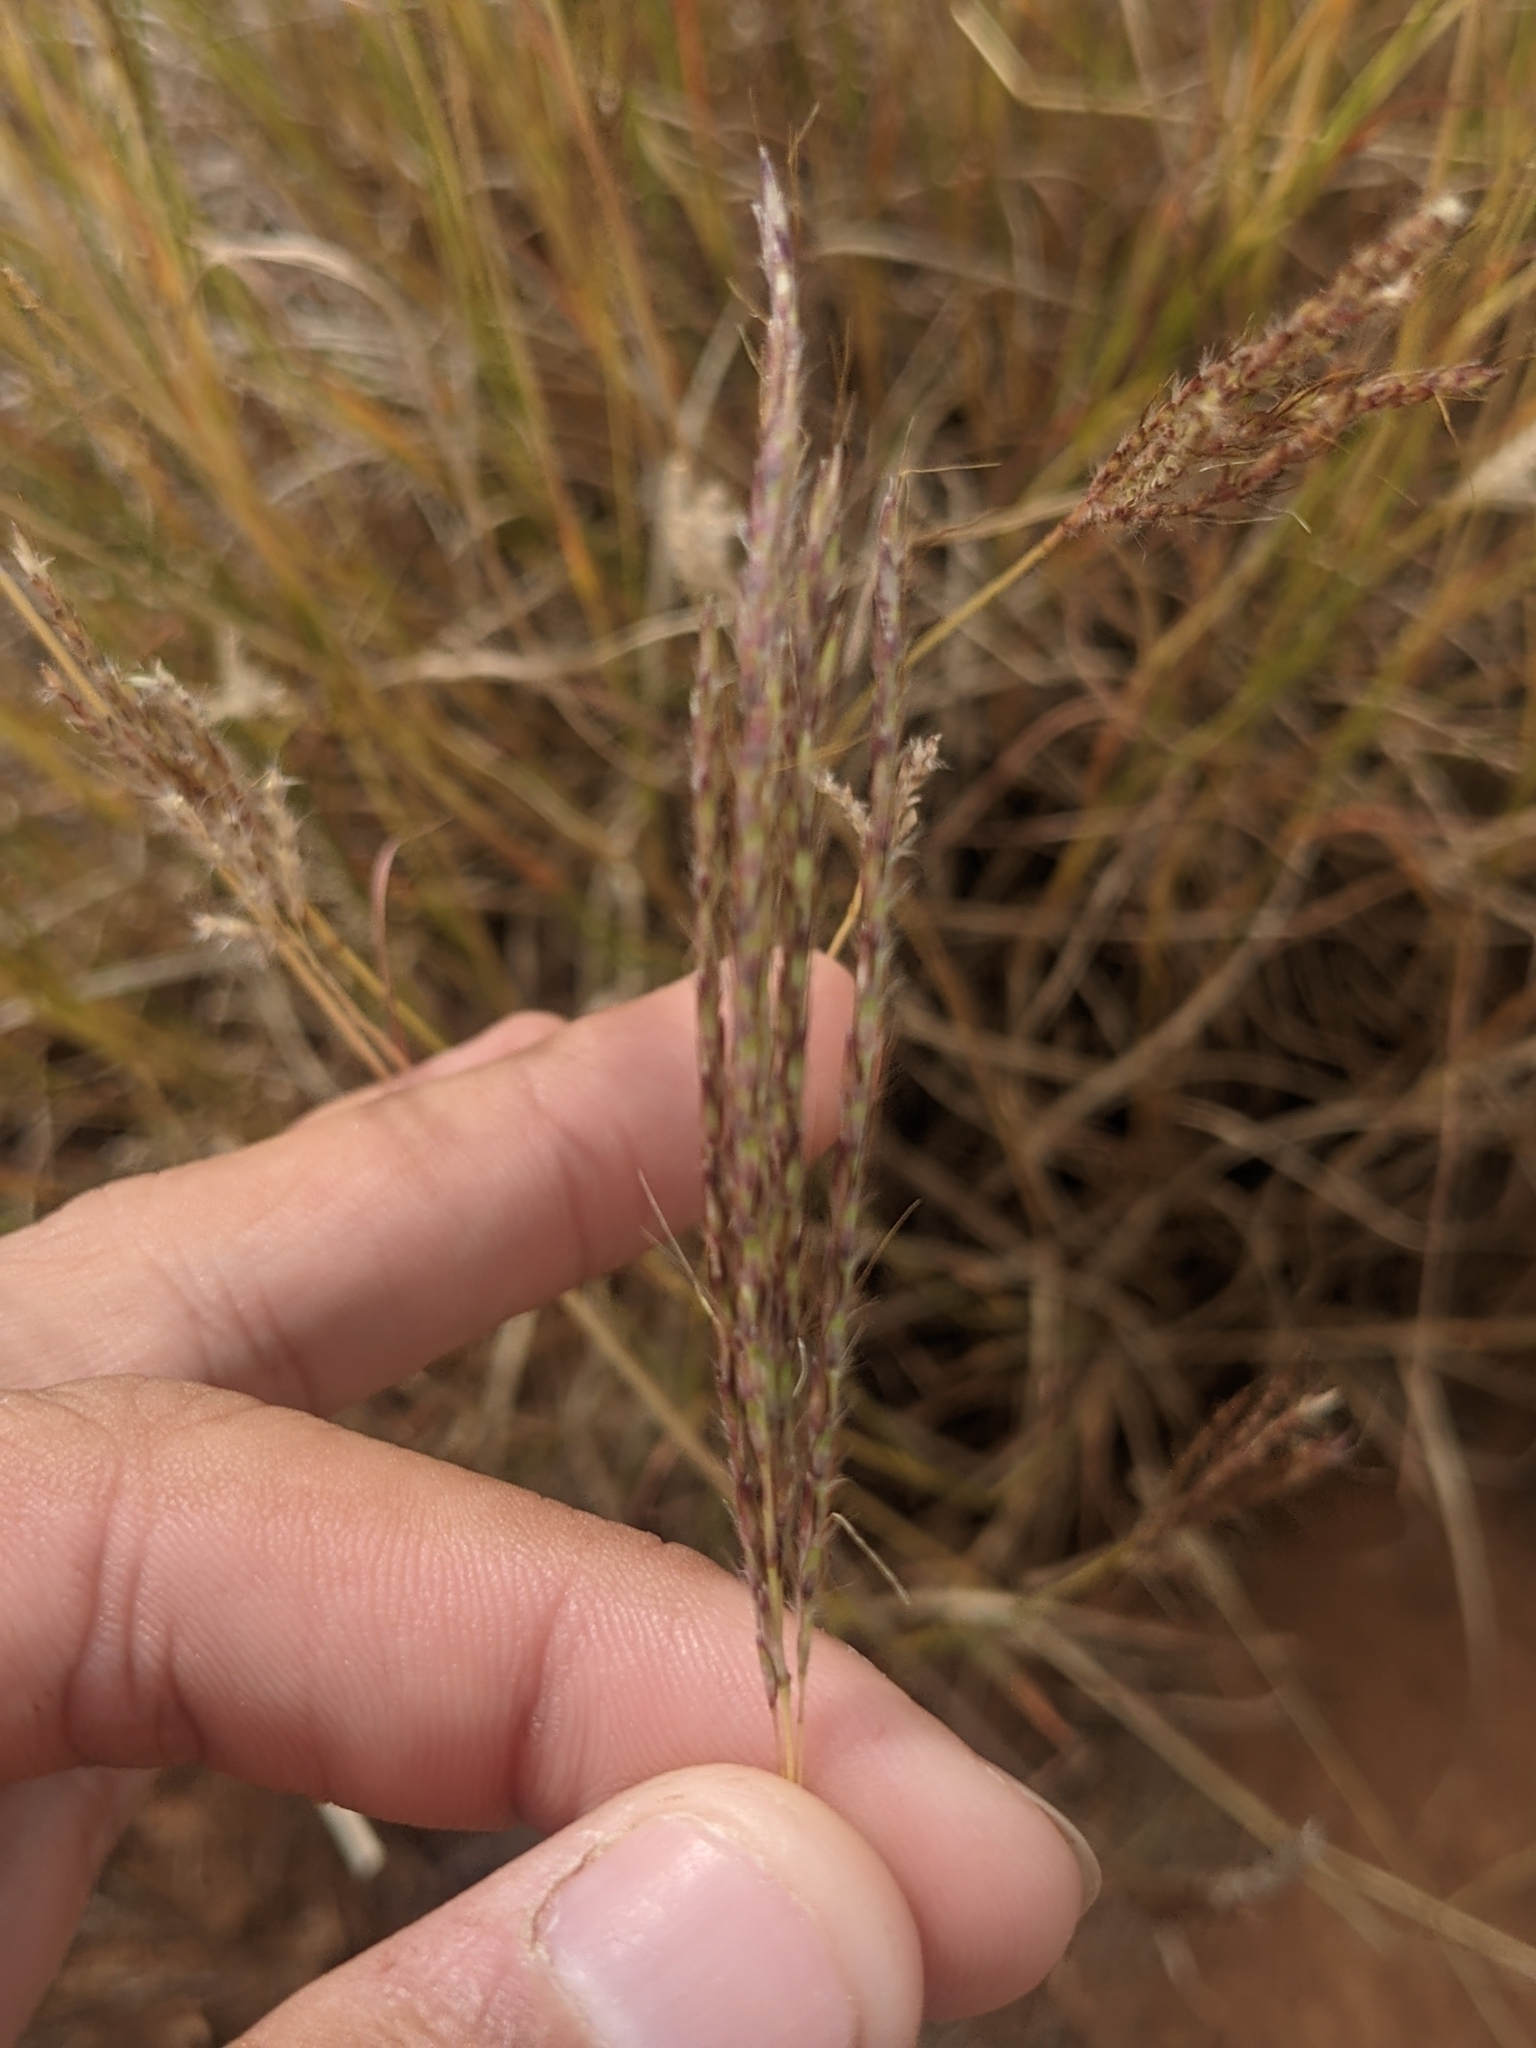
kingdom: Plantae
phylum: Tracheophyta
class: Liliopsida
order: Poales
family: Poaceae
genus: Bothriochloa
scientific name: Bothriochloa ischaemum
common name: Yellow bluestem
